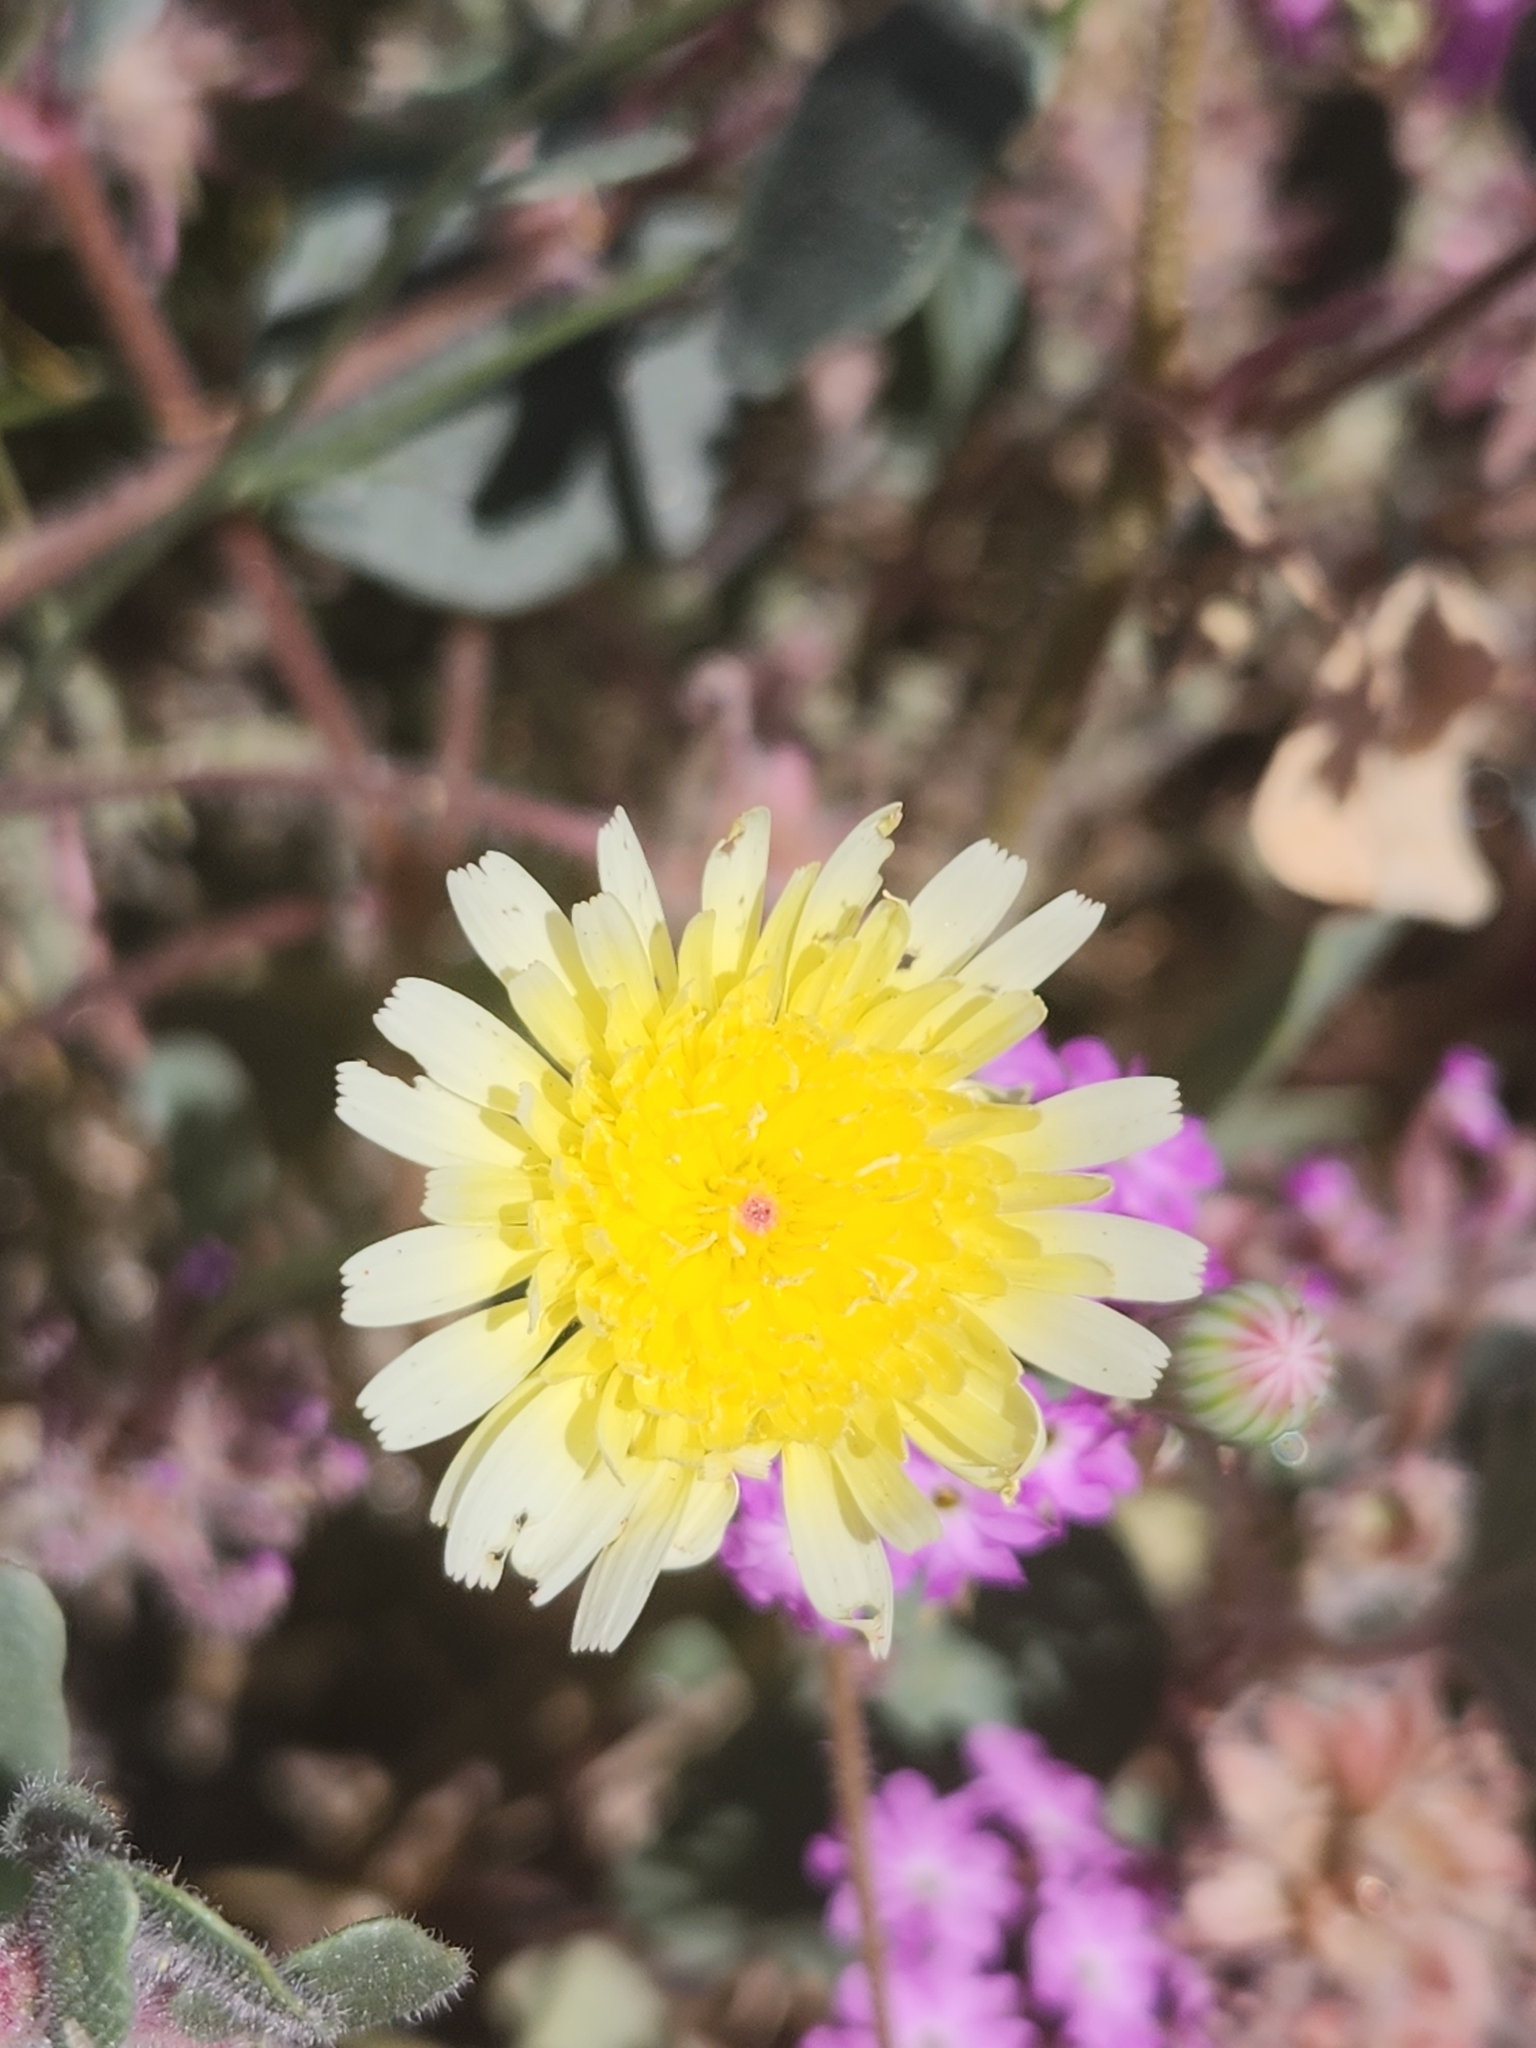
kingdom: Plantae
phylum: Tracheophyta
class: Magnoliopsida
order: Asterales
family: Asteraceae
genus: Malacothrix
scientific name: Malacothrix glabrata
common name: Smooth desert-dandelion
